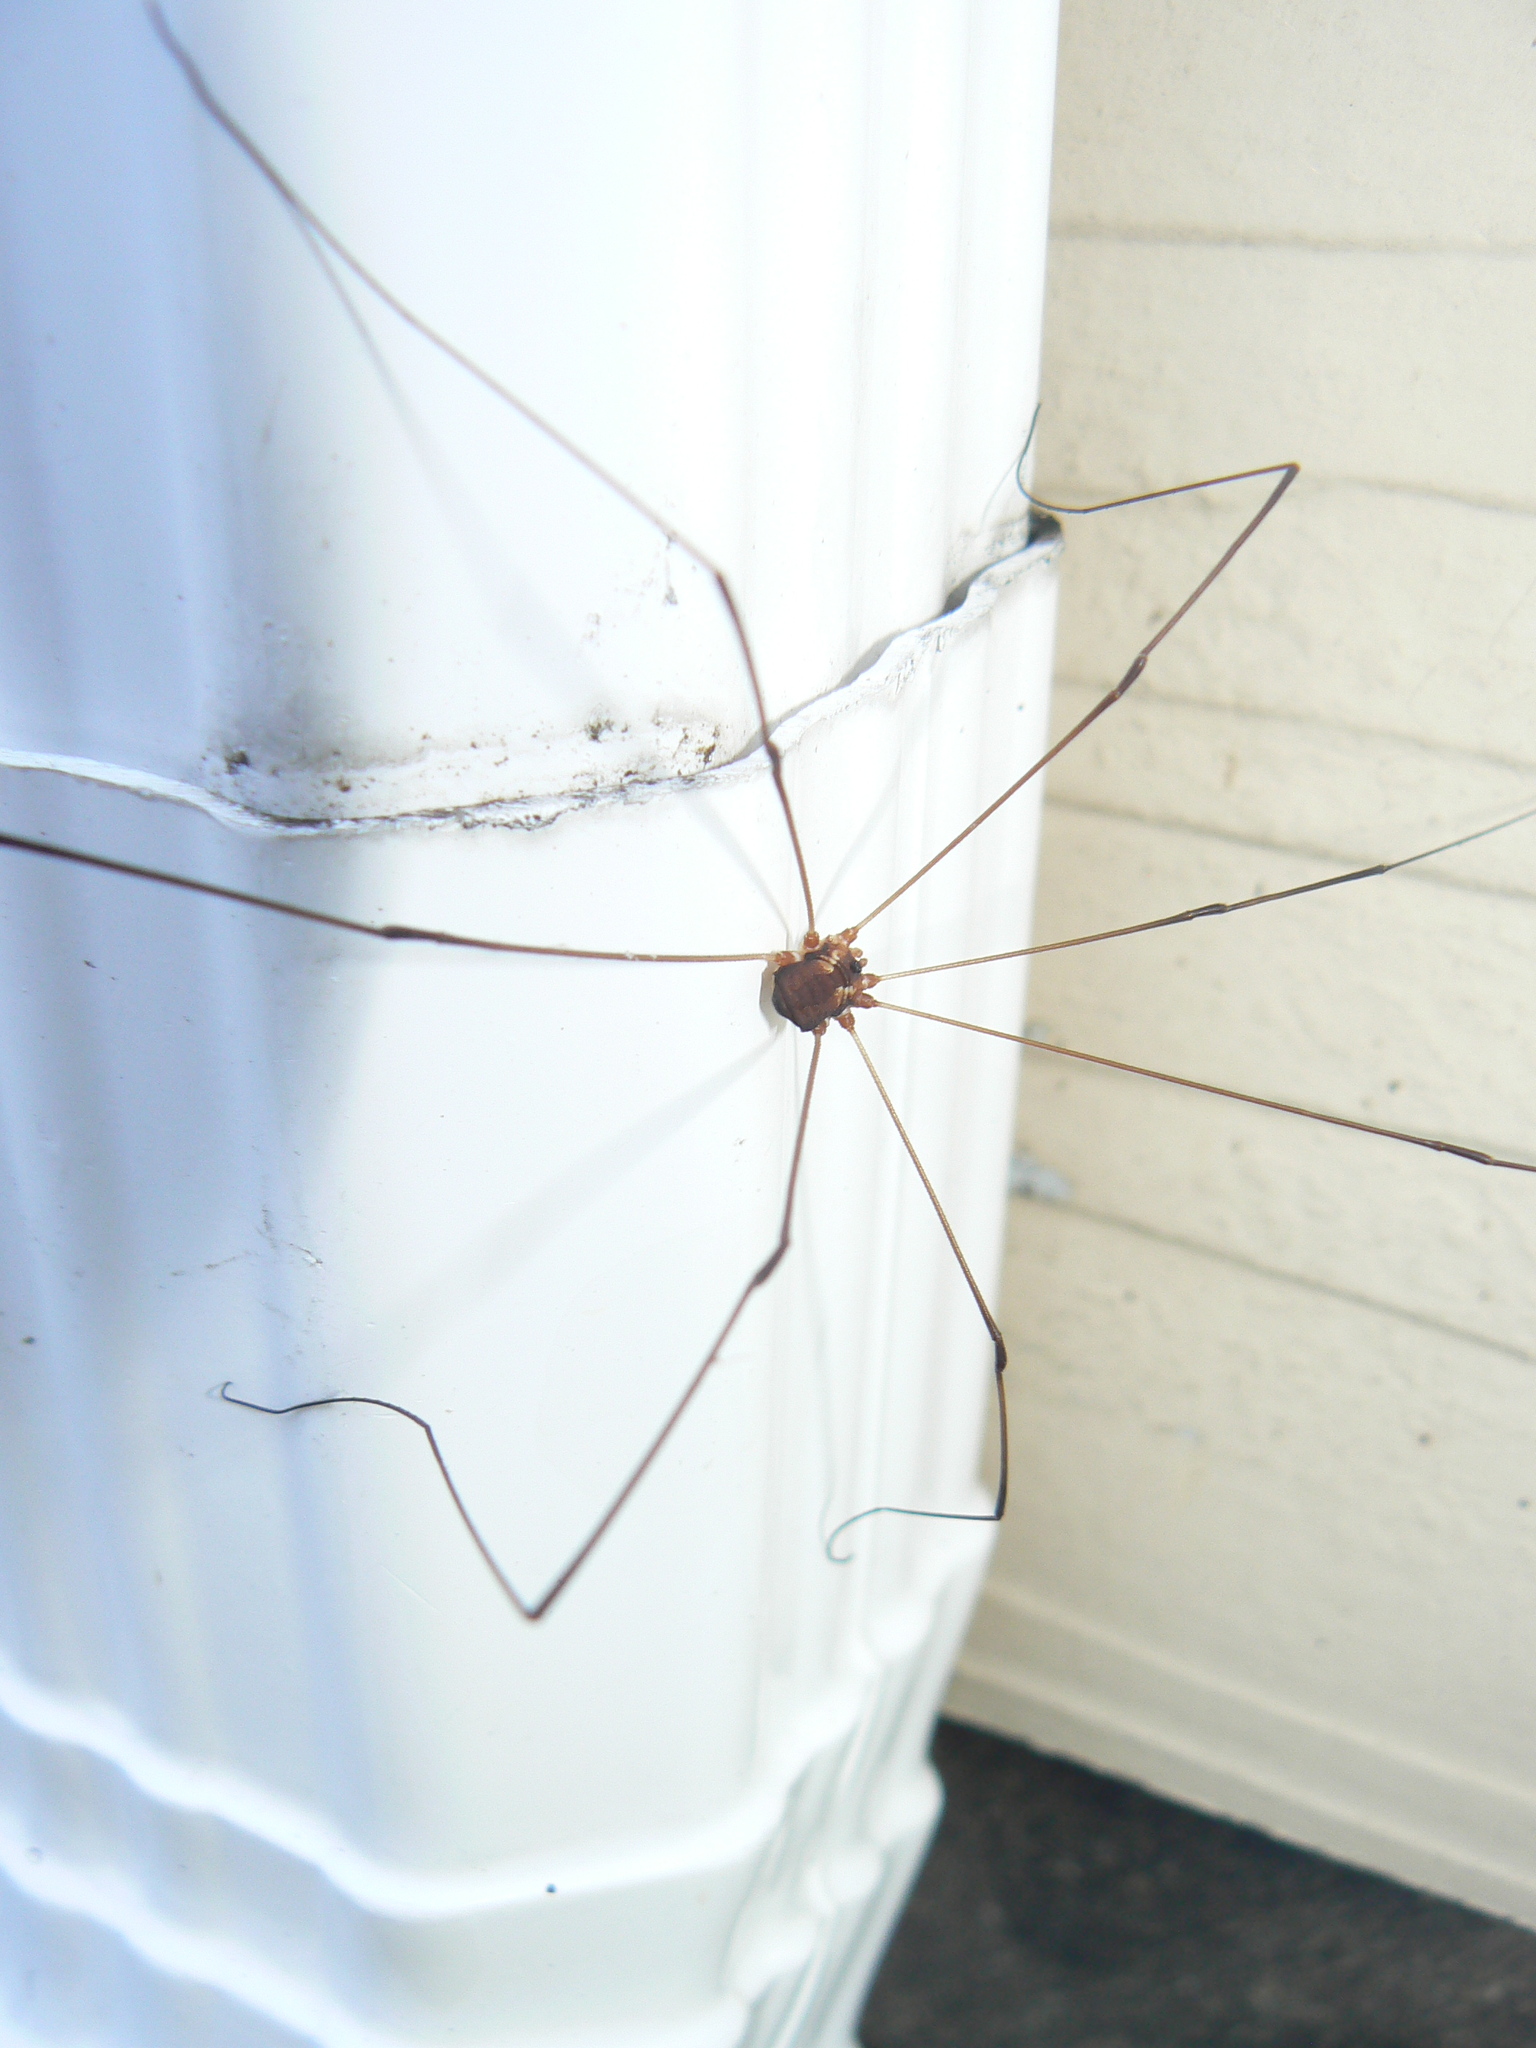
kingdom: Animalia
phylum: Arthropoda
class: Arachnida
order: Opiliones
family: Sclerosomatidae
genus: Leiobunum
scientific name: Leiobunum bimaculatum
